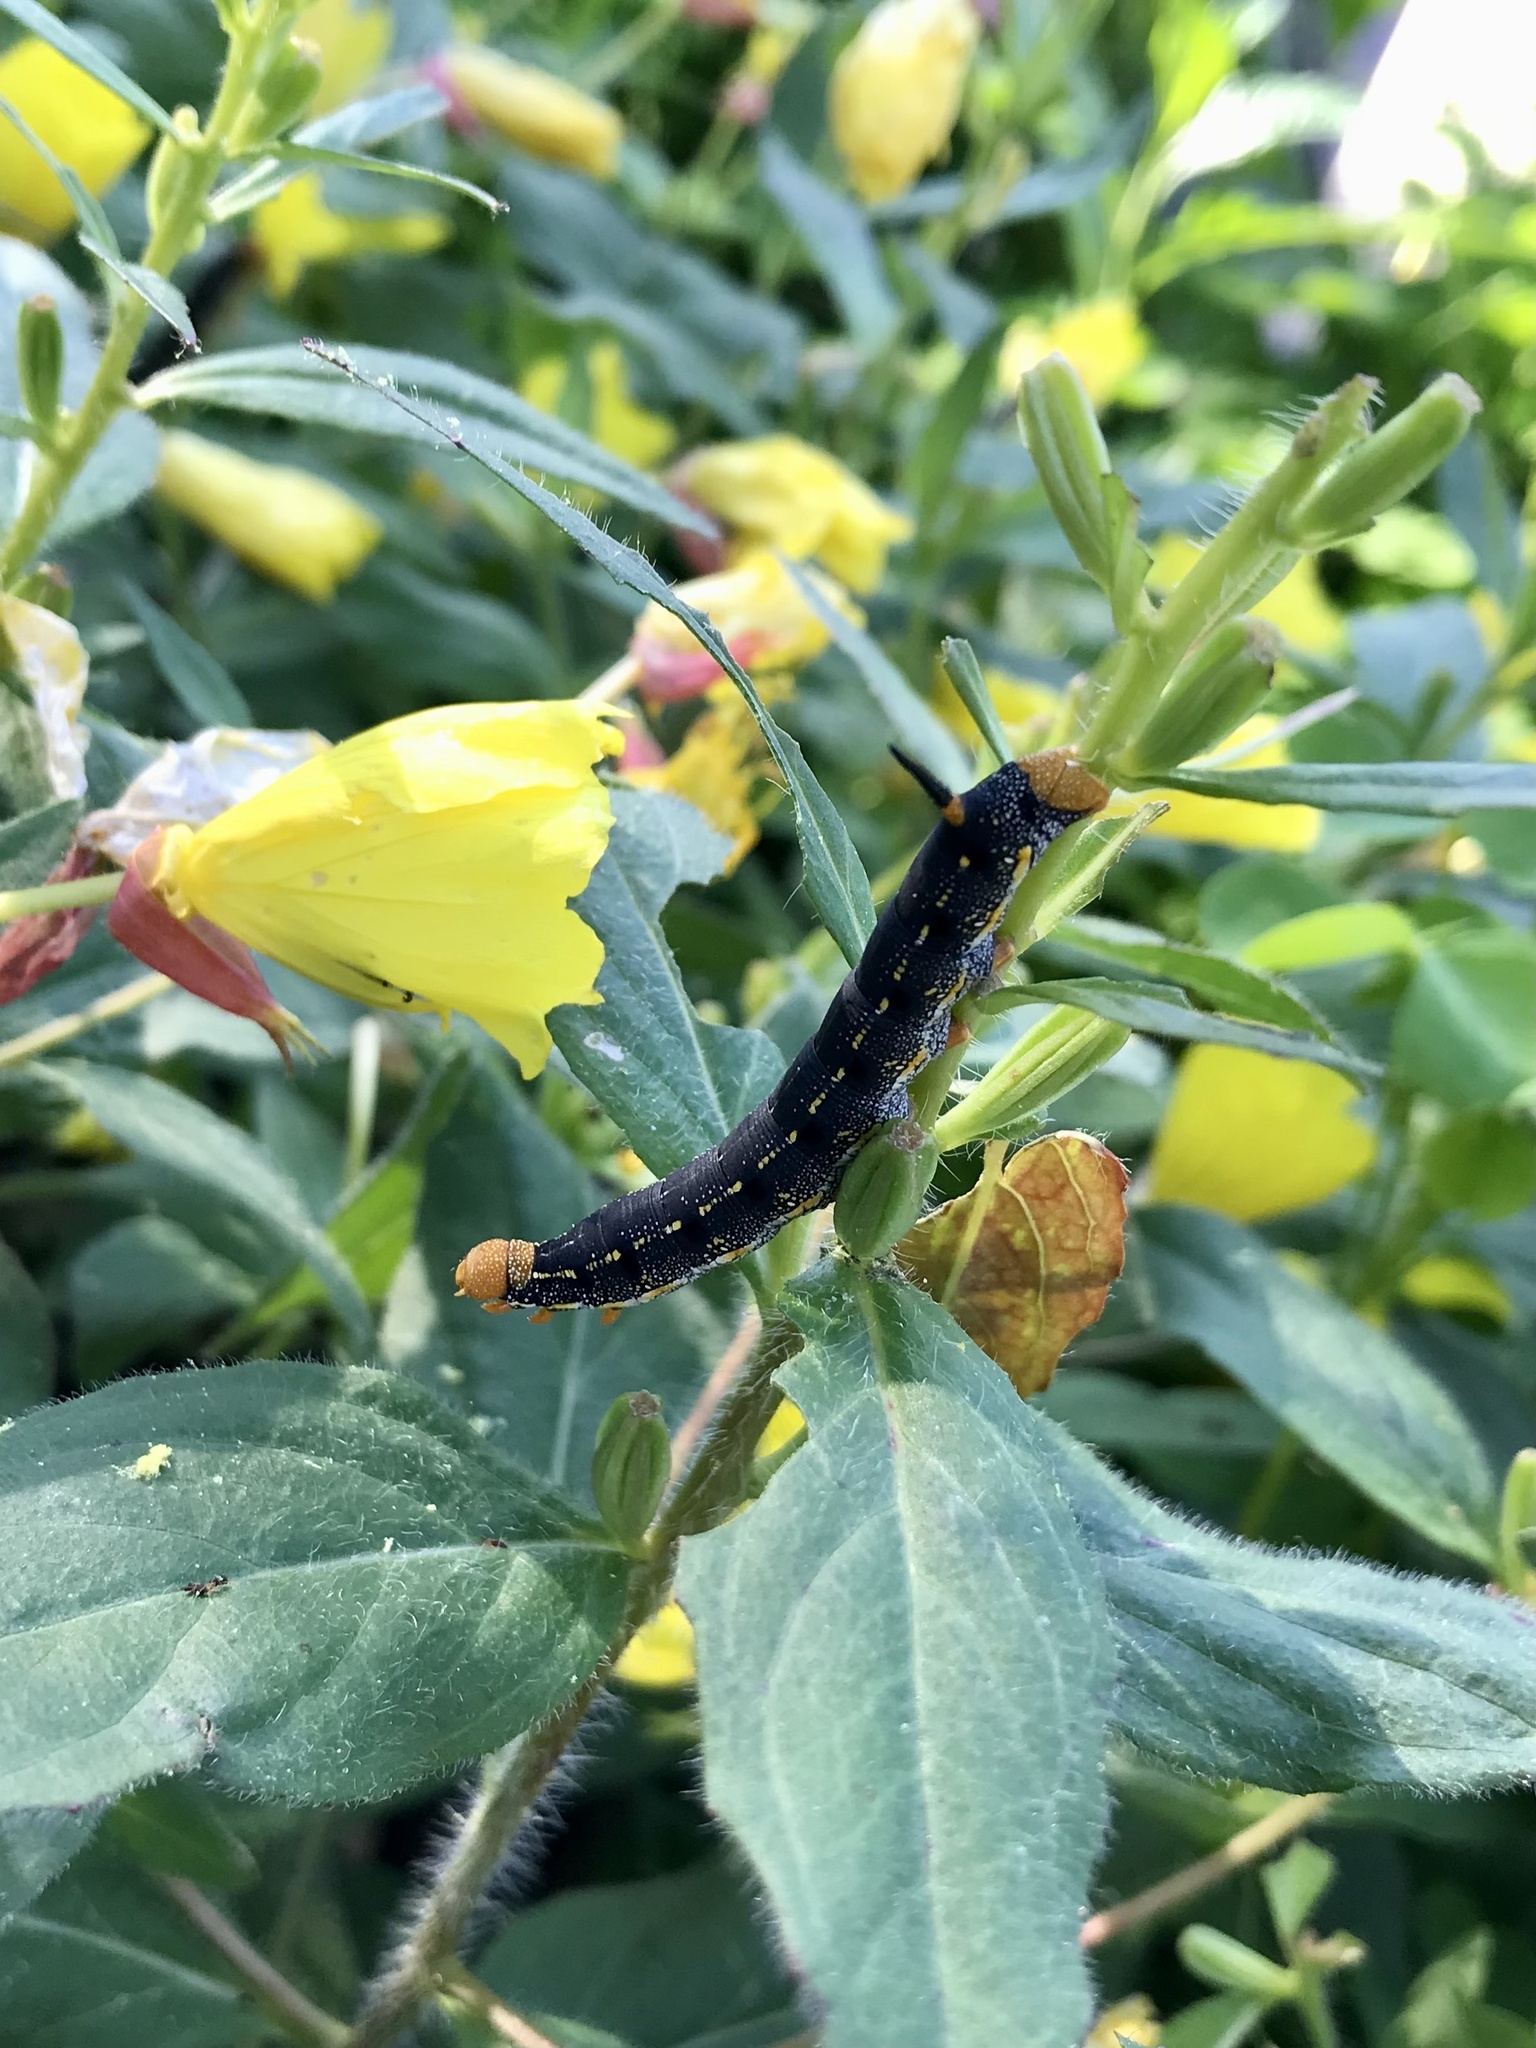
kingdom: Animalia
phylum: Arthropoda
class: Insecta
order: Lepidoptera
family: Sphingidae
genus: Hyles
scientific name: Hyles lineata
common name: White-lined sphinx
